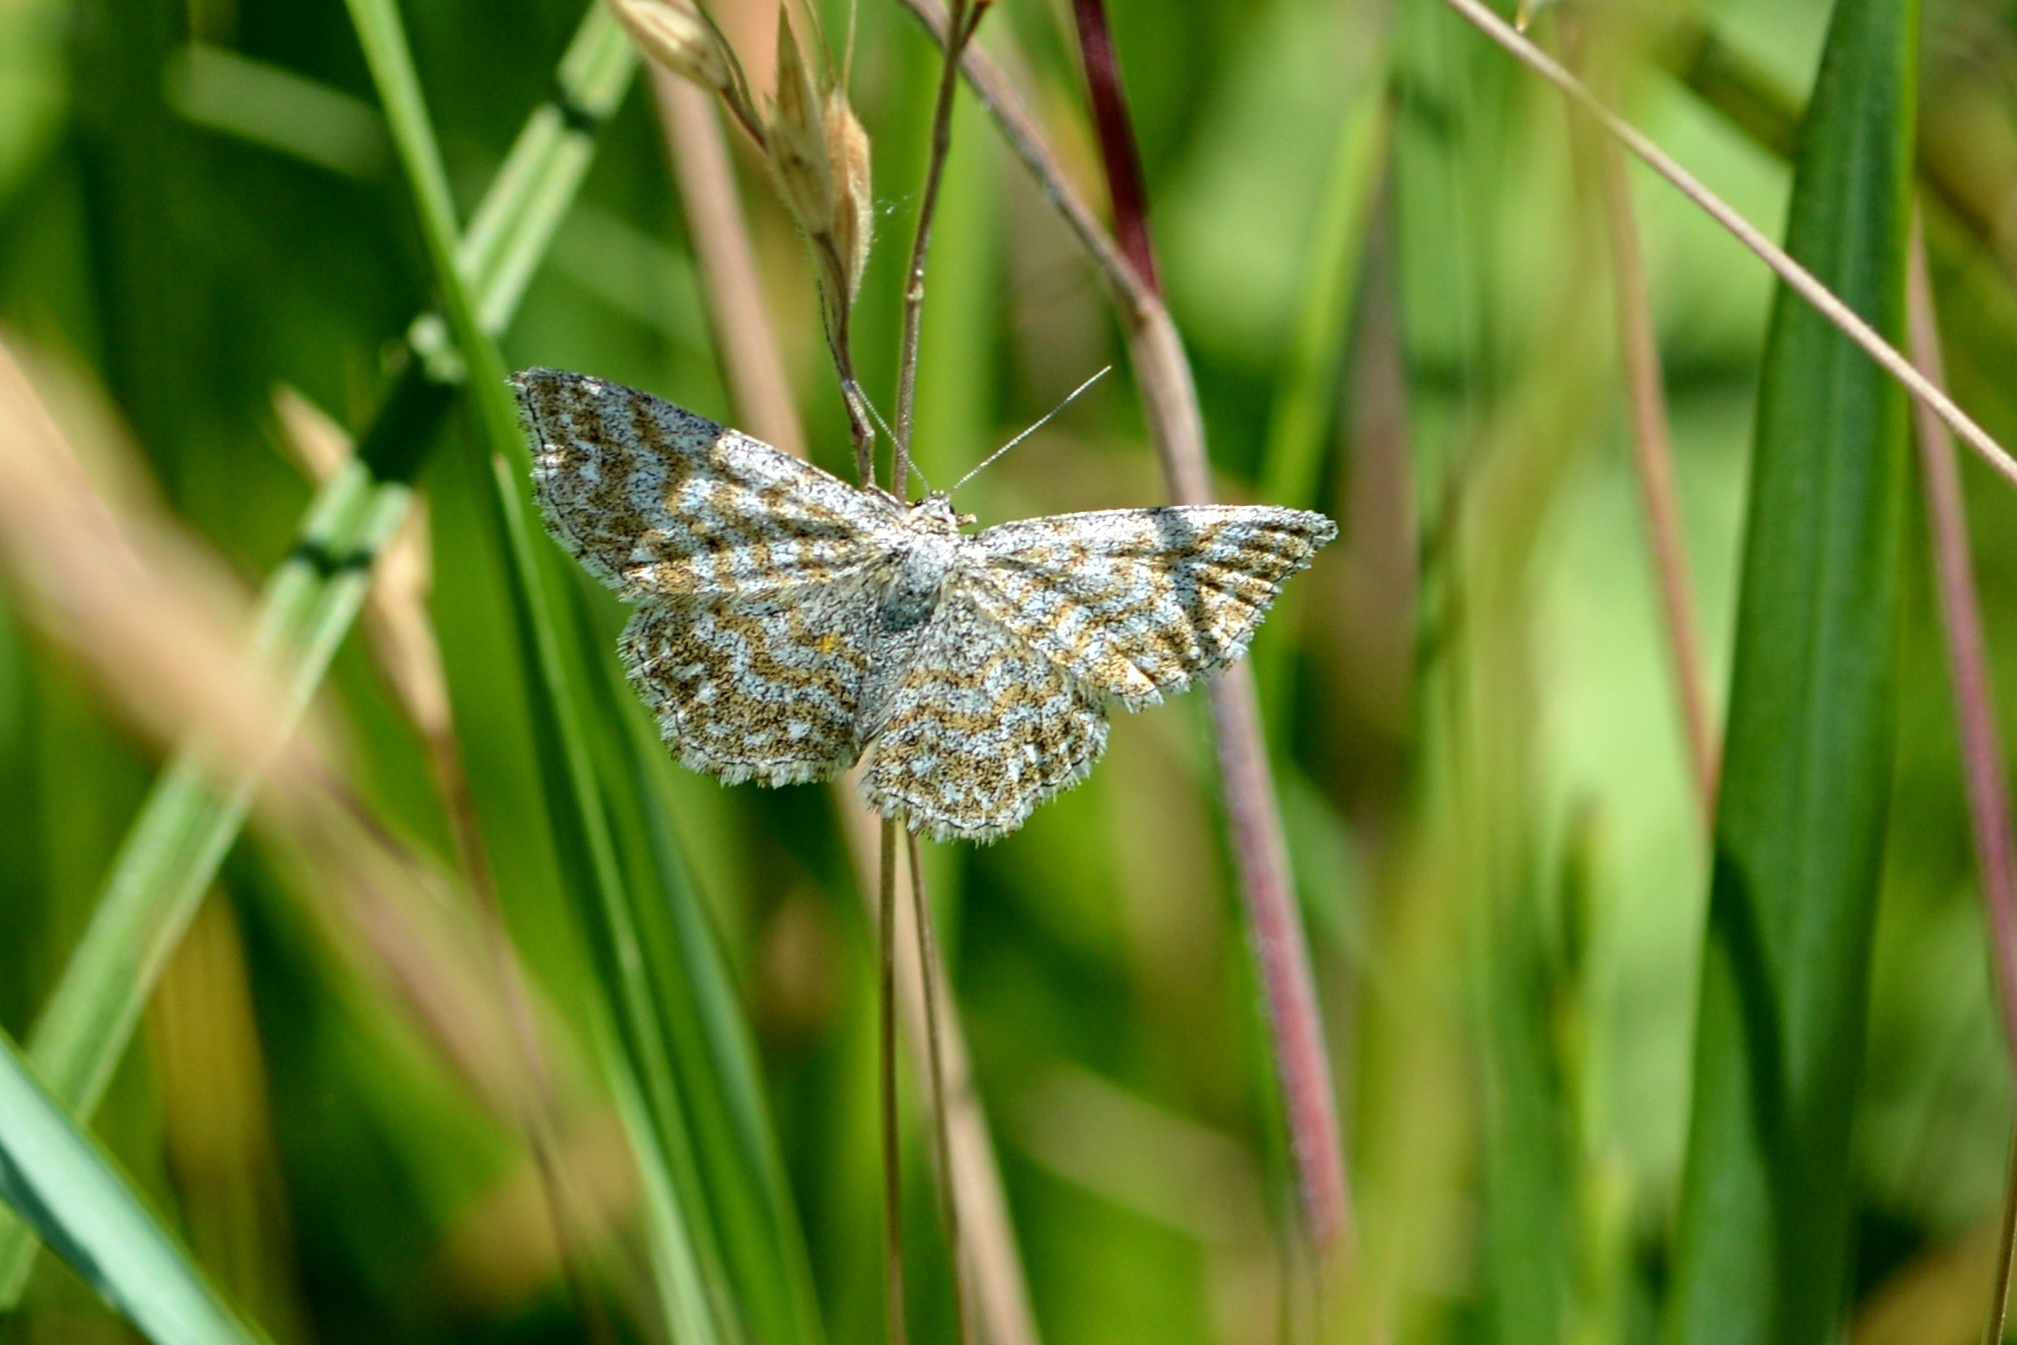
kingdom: Animalia
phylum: Arthropoda
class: Insecta
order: Lepidoptera
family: Geometridae
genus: Scopula
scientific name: Scopula immorata
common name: Lewes wave
